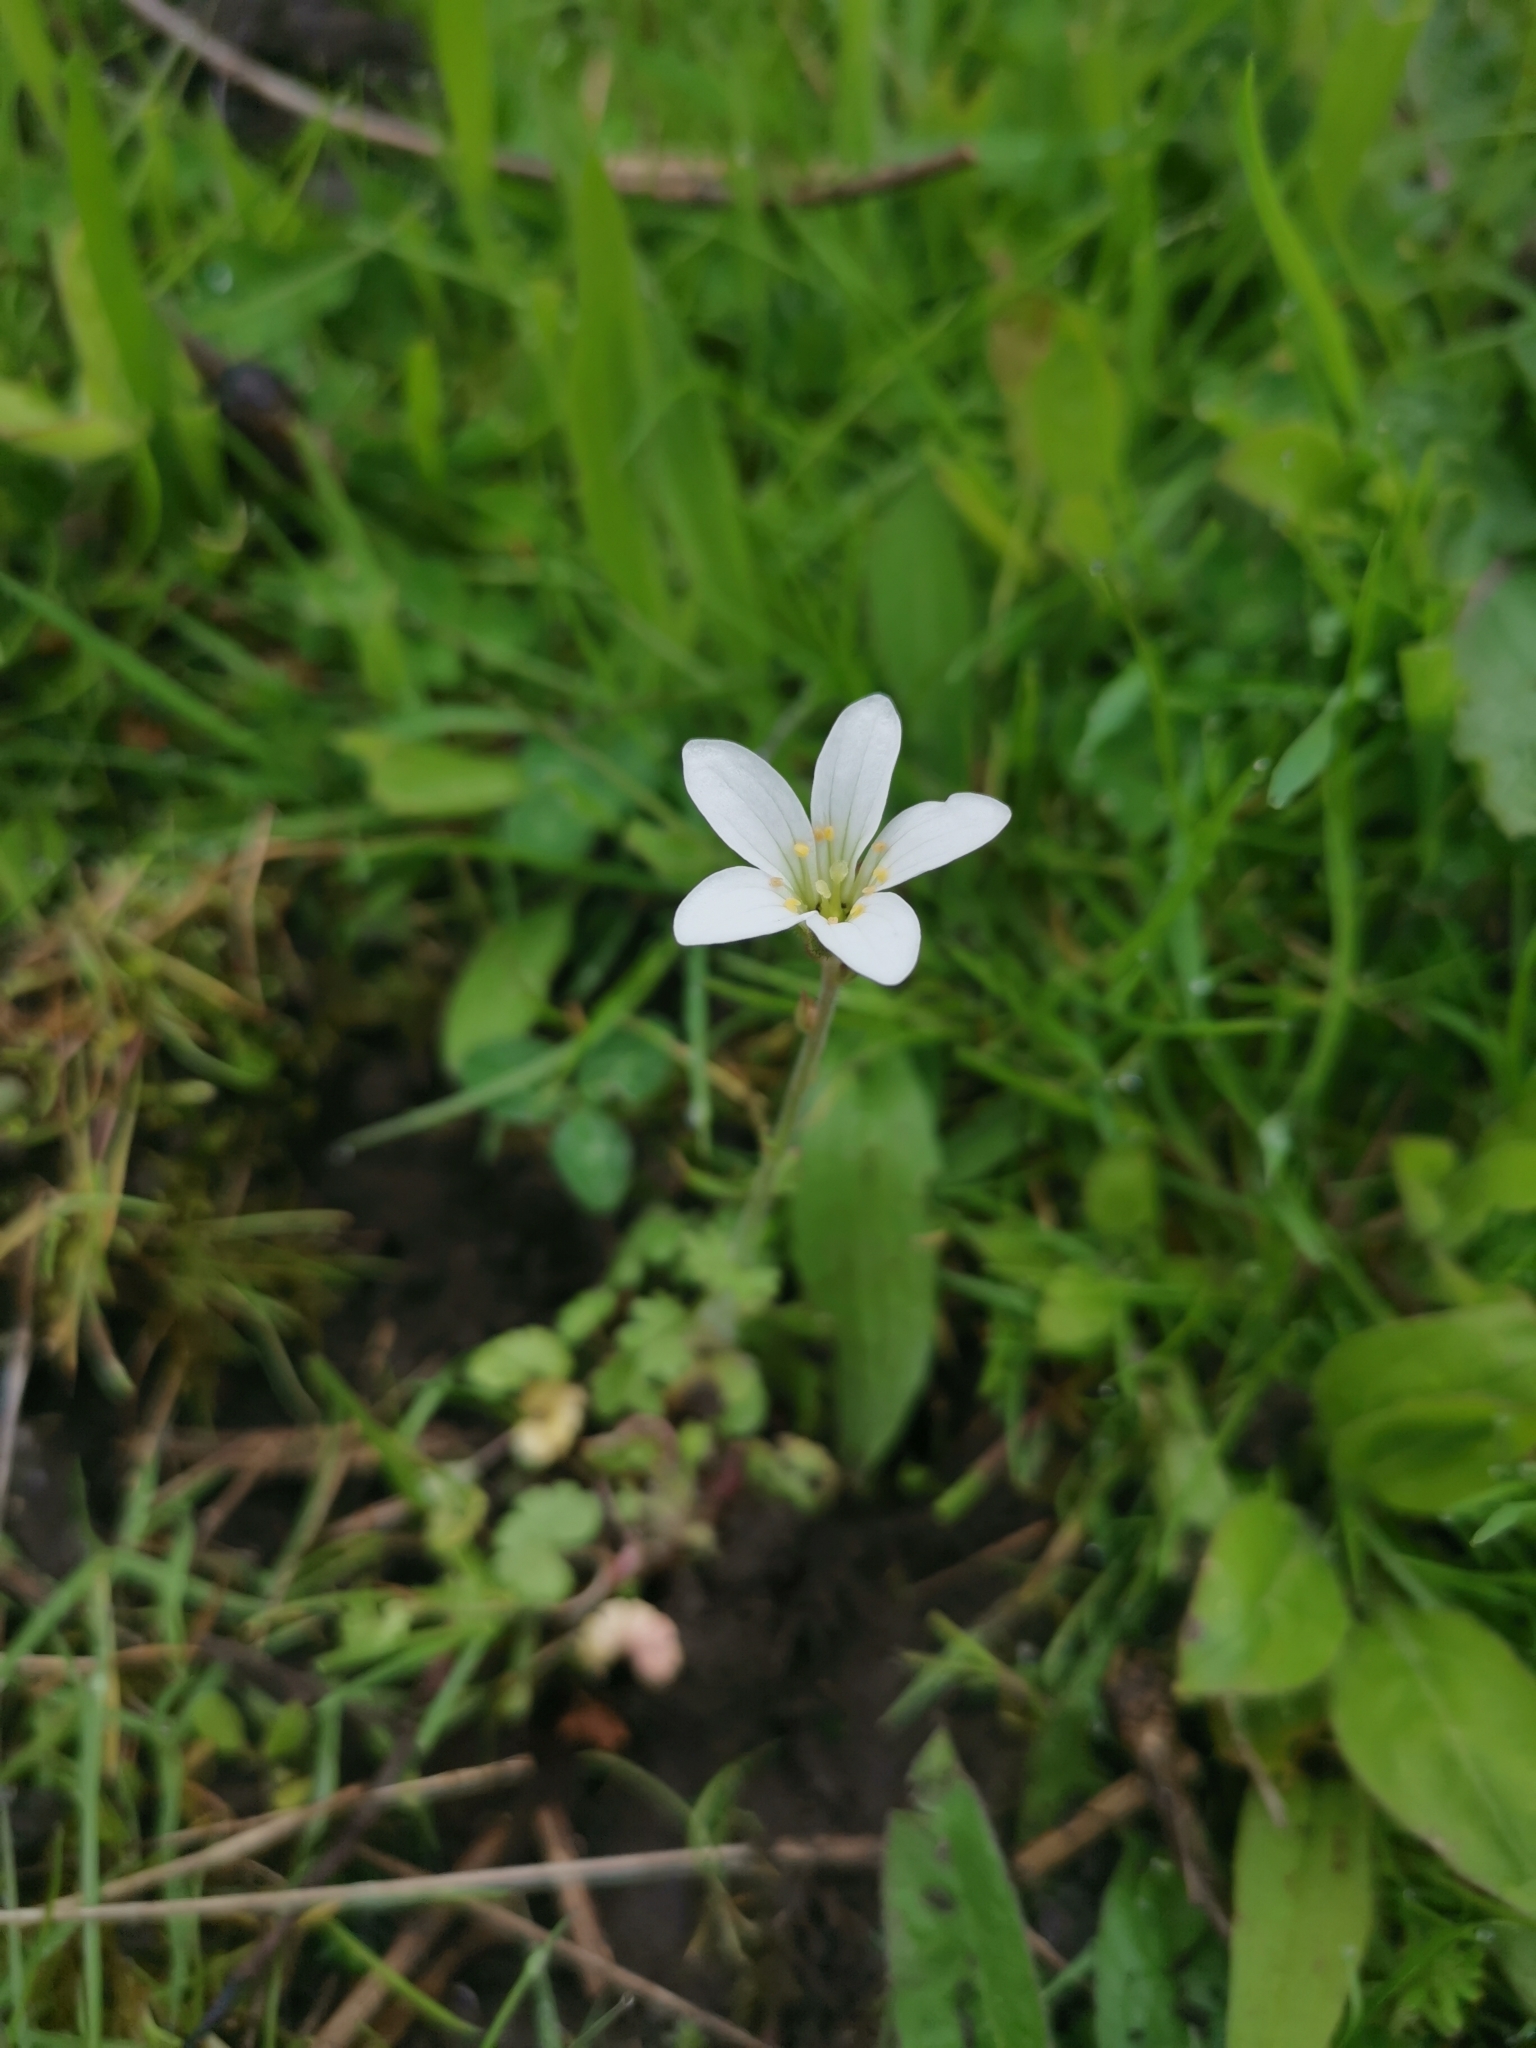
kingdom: Plantae
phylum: Tracheophyta
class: Magnoliopsida
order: Saxifragales
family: Saxifragaceae
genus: Saxifraga
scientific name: Saxifraga granulata
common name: Meadow saxifrage
